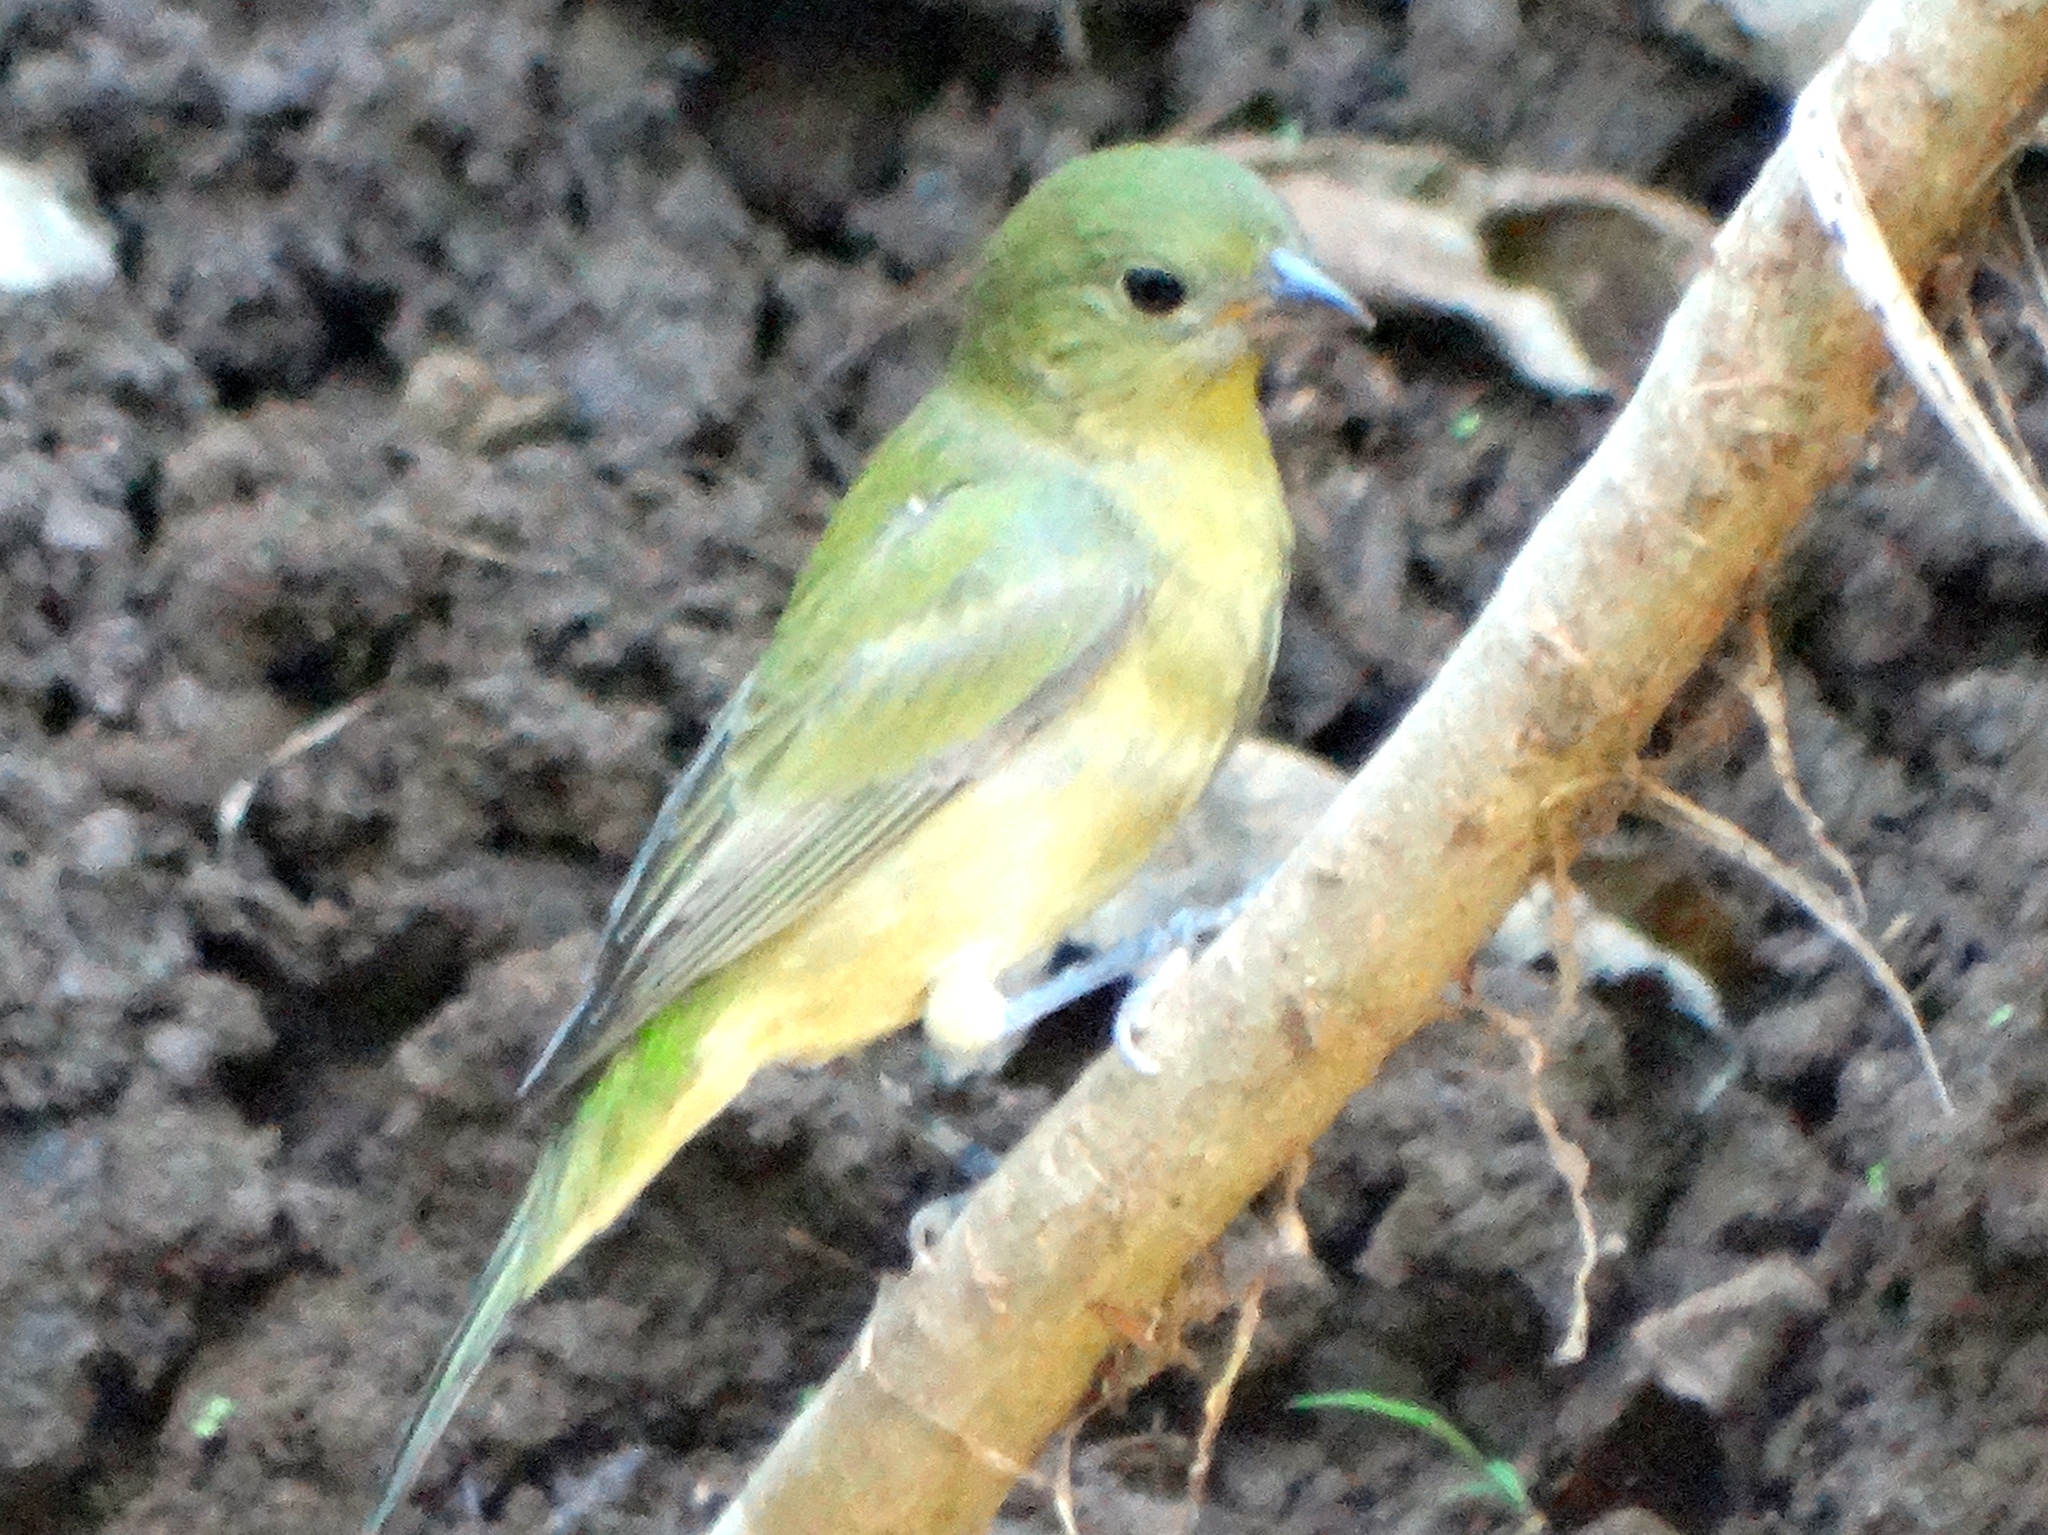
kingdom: Animalia
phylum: Chordata
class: Aves
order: Passeriformes
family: Cardinalidae
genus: Passerina
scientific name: Passerina ciris
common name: Painted bunting
